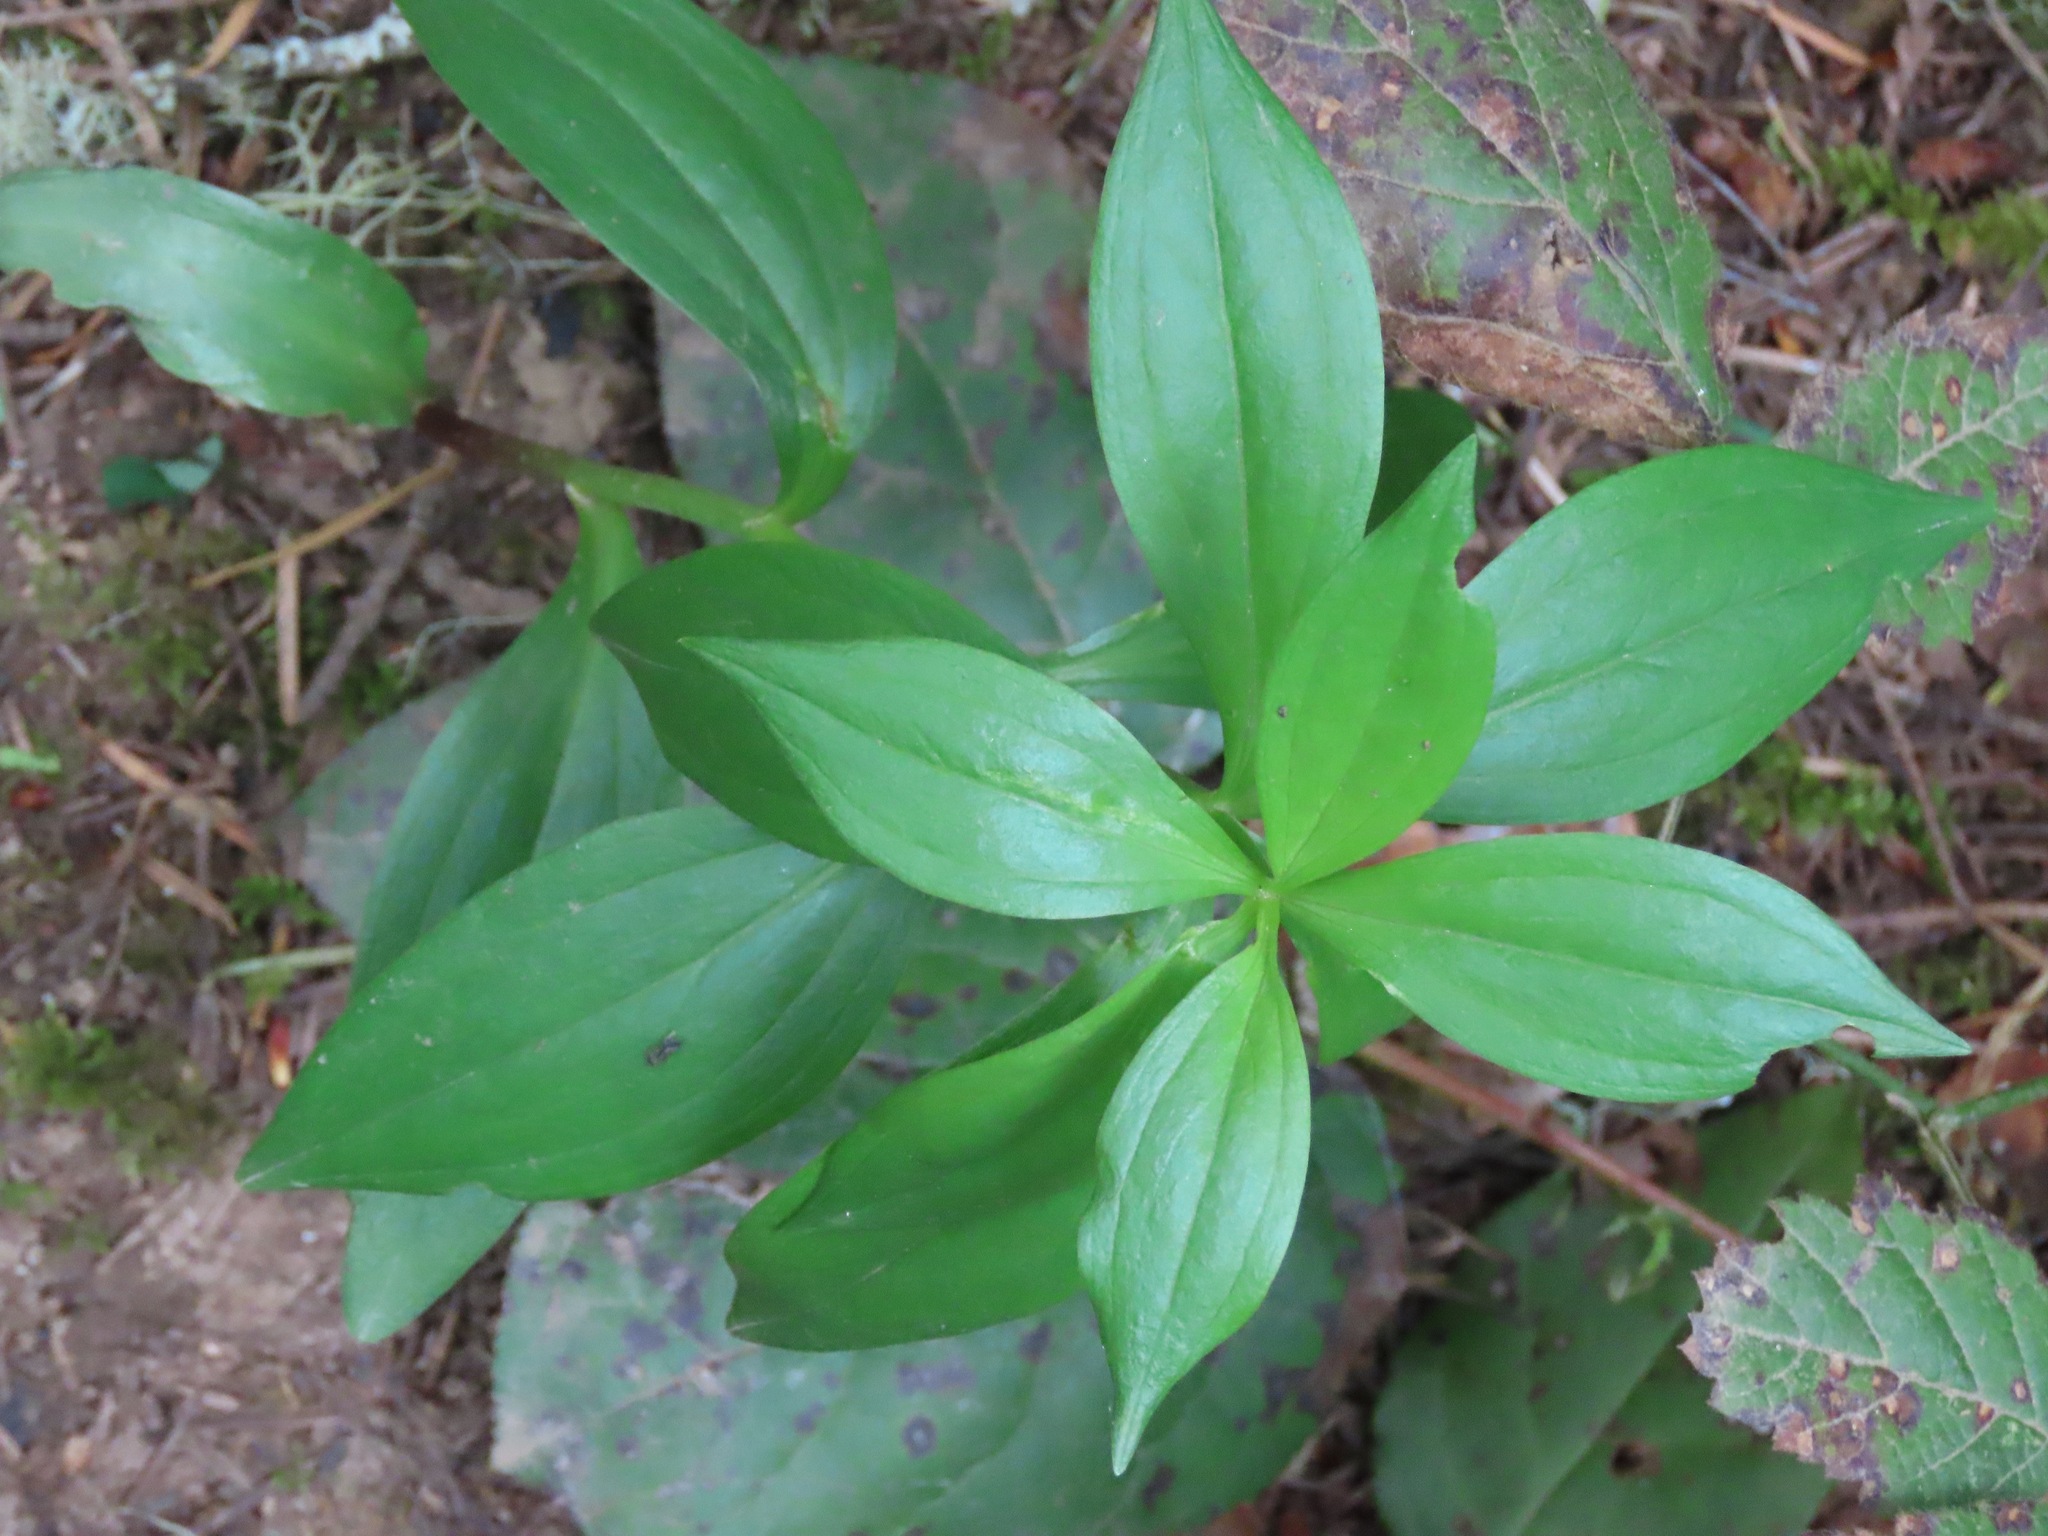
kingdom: Plantae
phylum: Tracheophyta
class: Liliopsida
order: Liliales
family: Liliaceae
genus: Lilium
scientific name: Lilium columbianum
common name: Columbia lily
